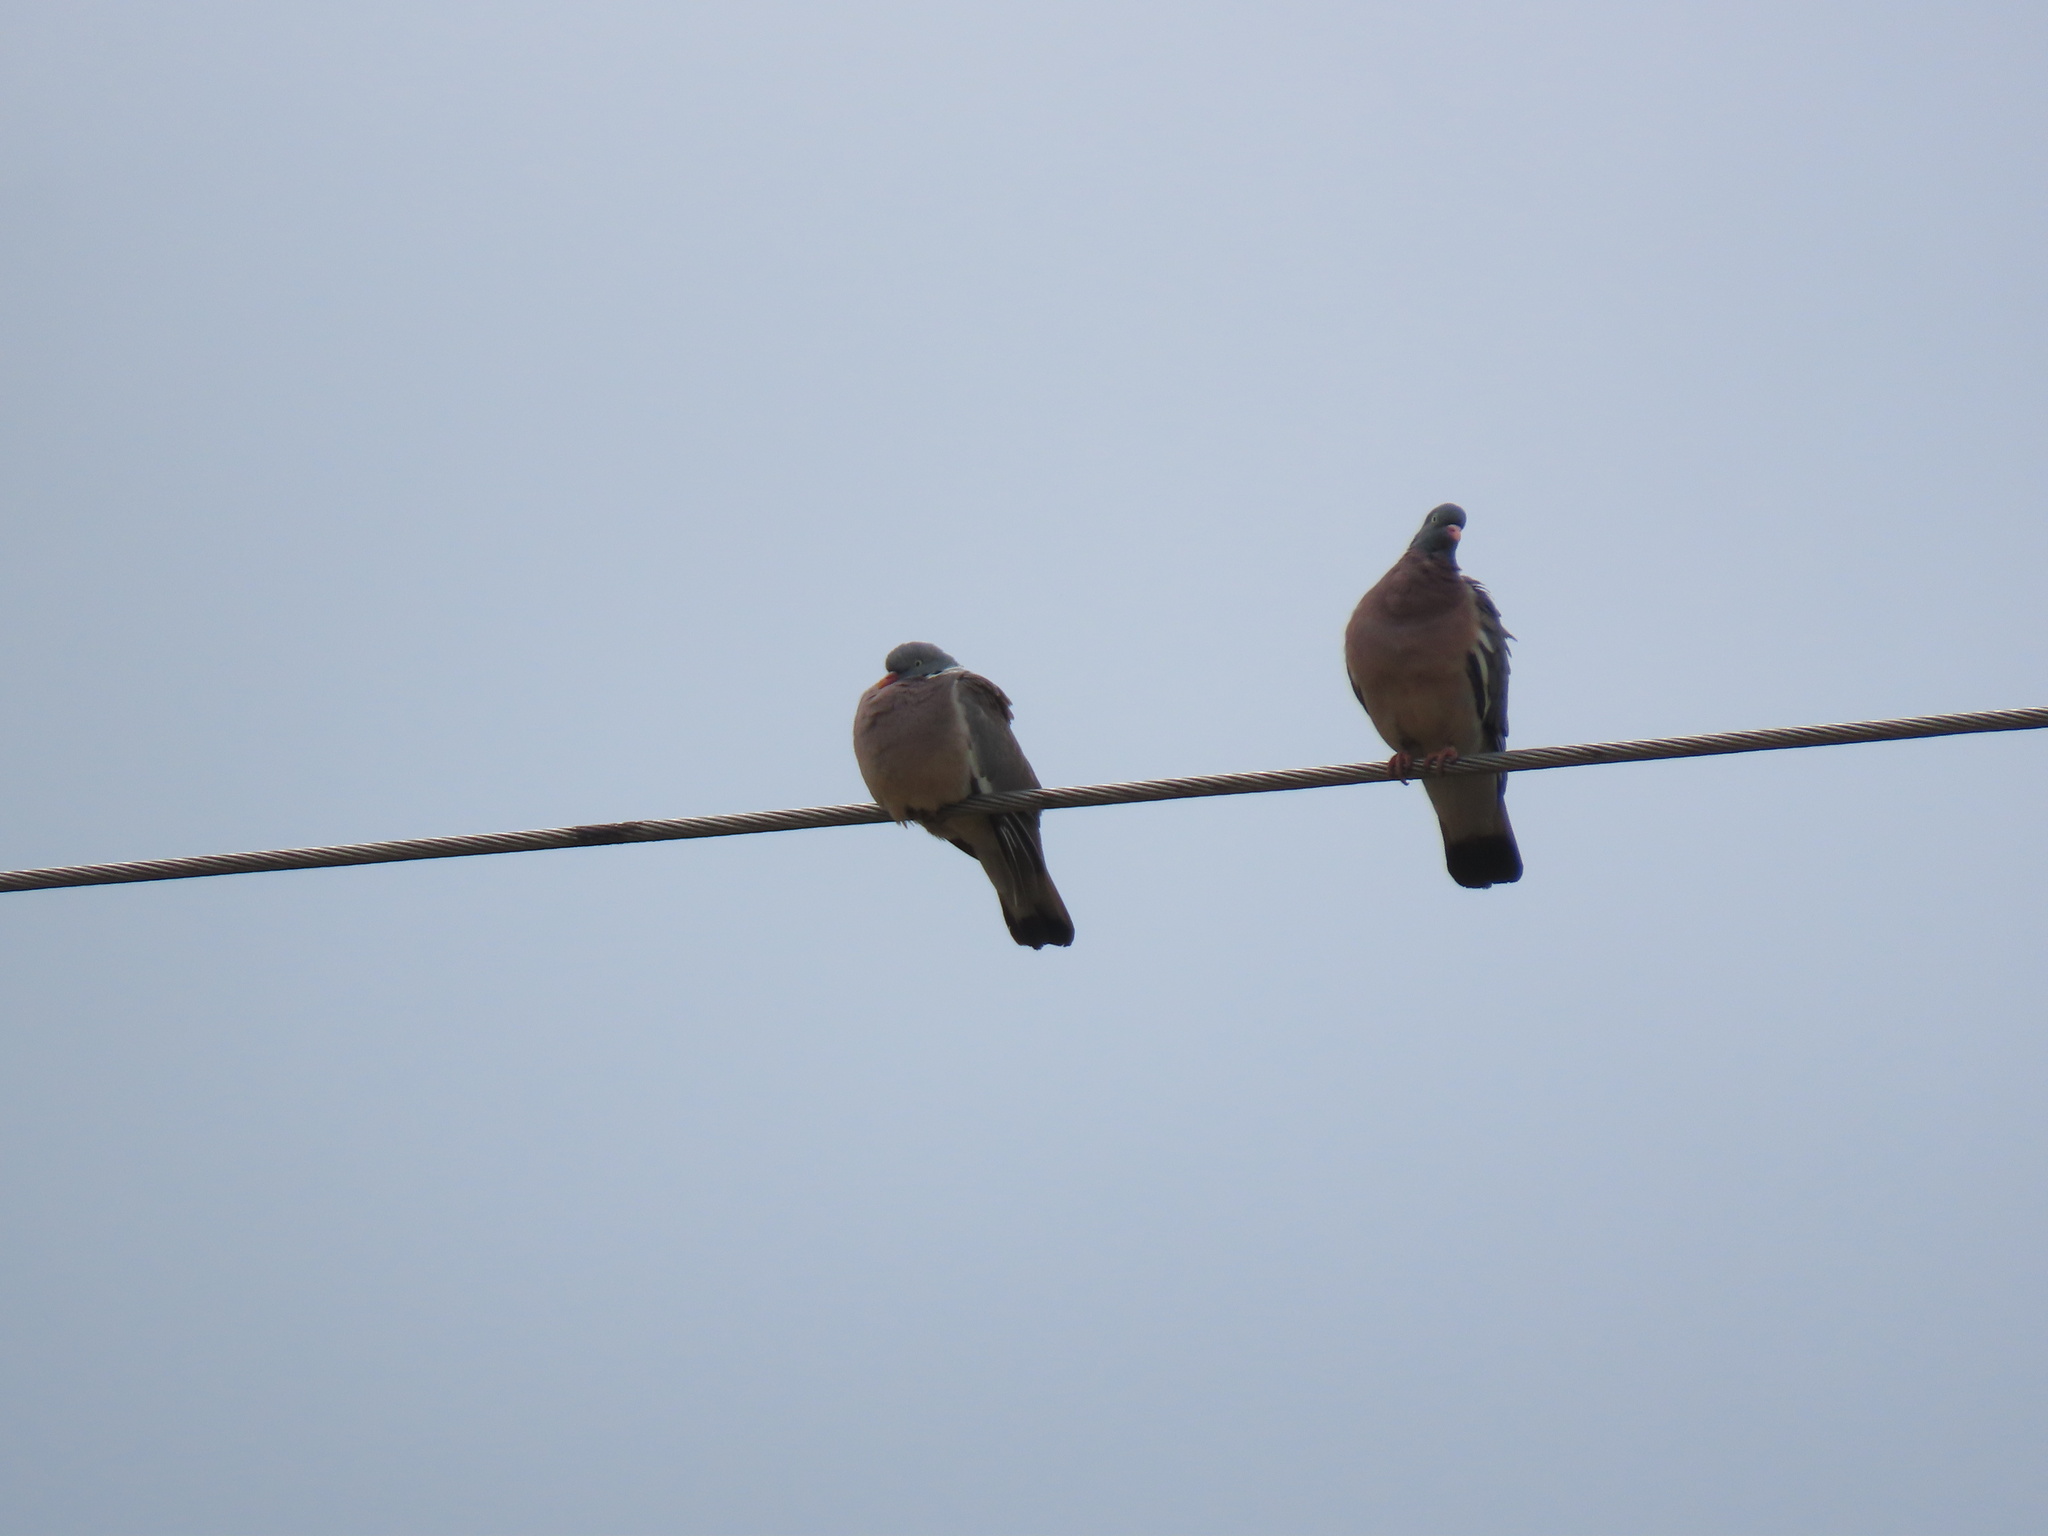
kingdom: Animalia
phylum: Chordata
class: Aves
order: Columbiformes
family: Columbidae
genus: Columba
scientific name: Columba palumbus
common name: Common wood pigeon
